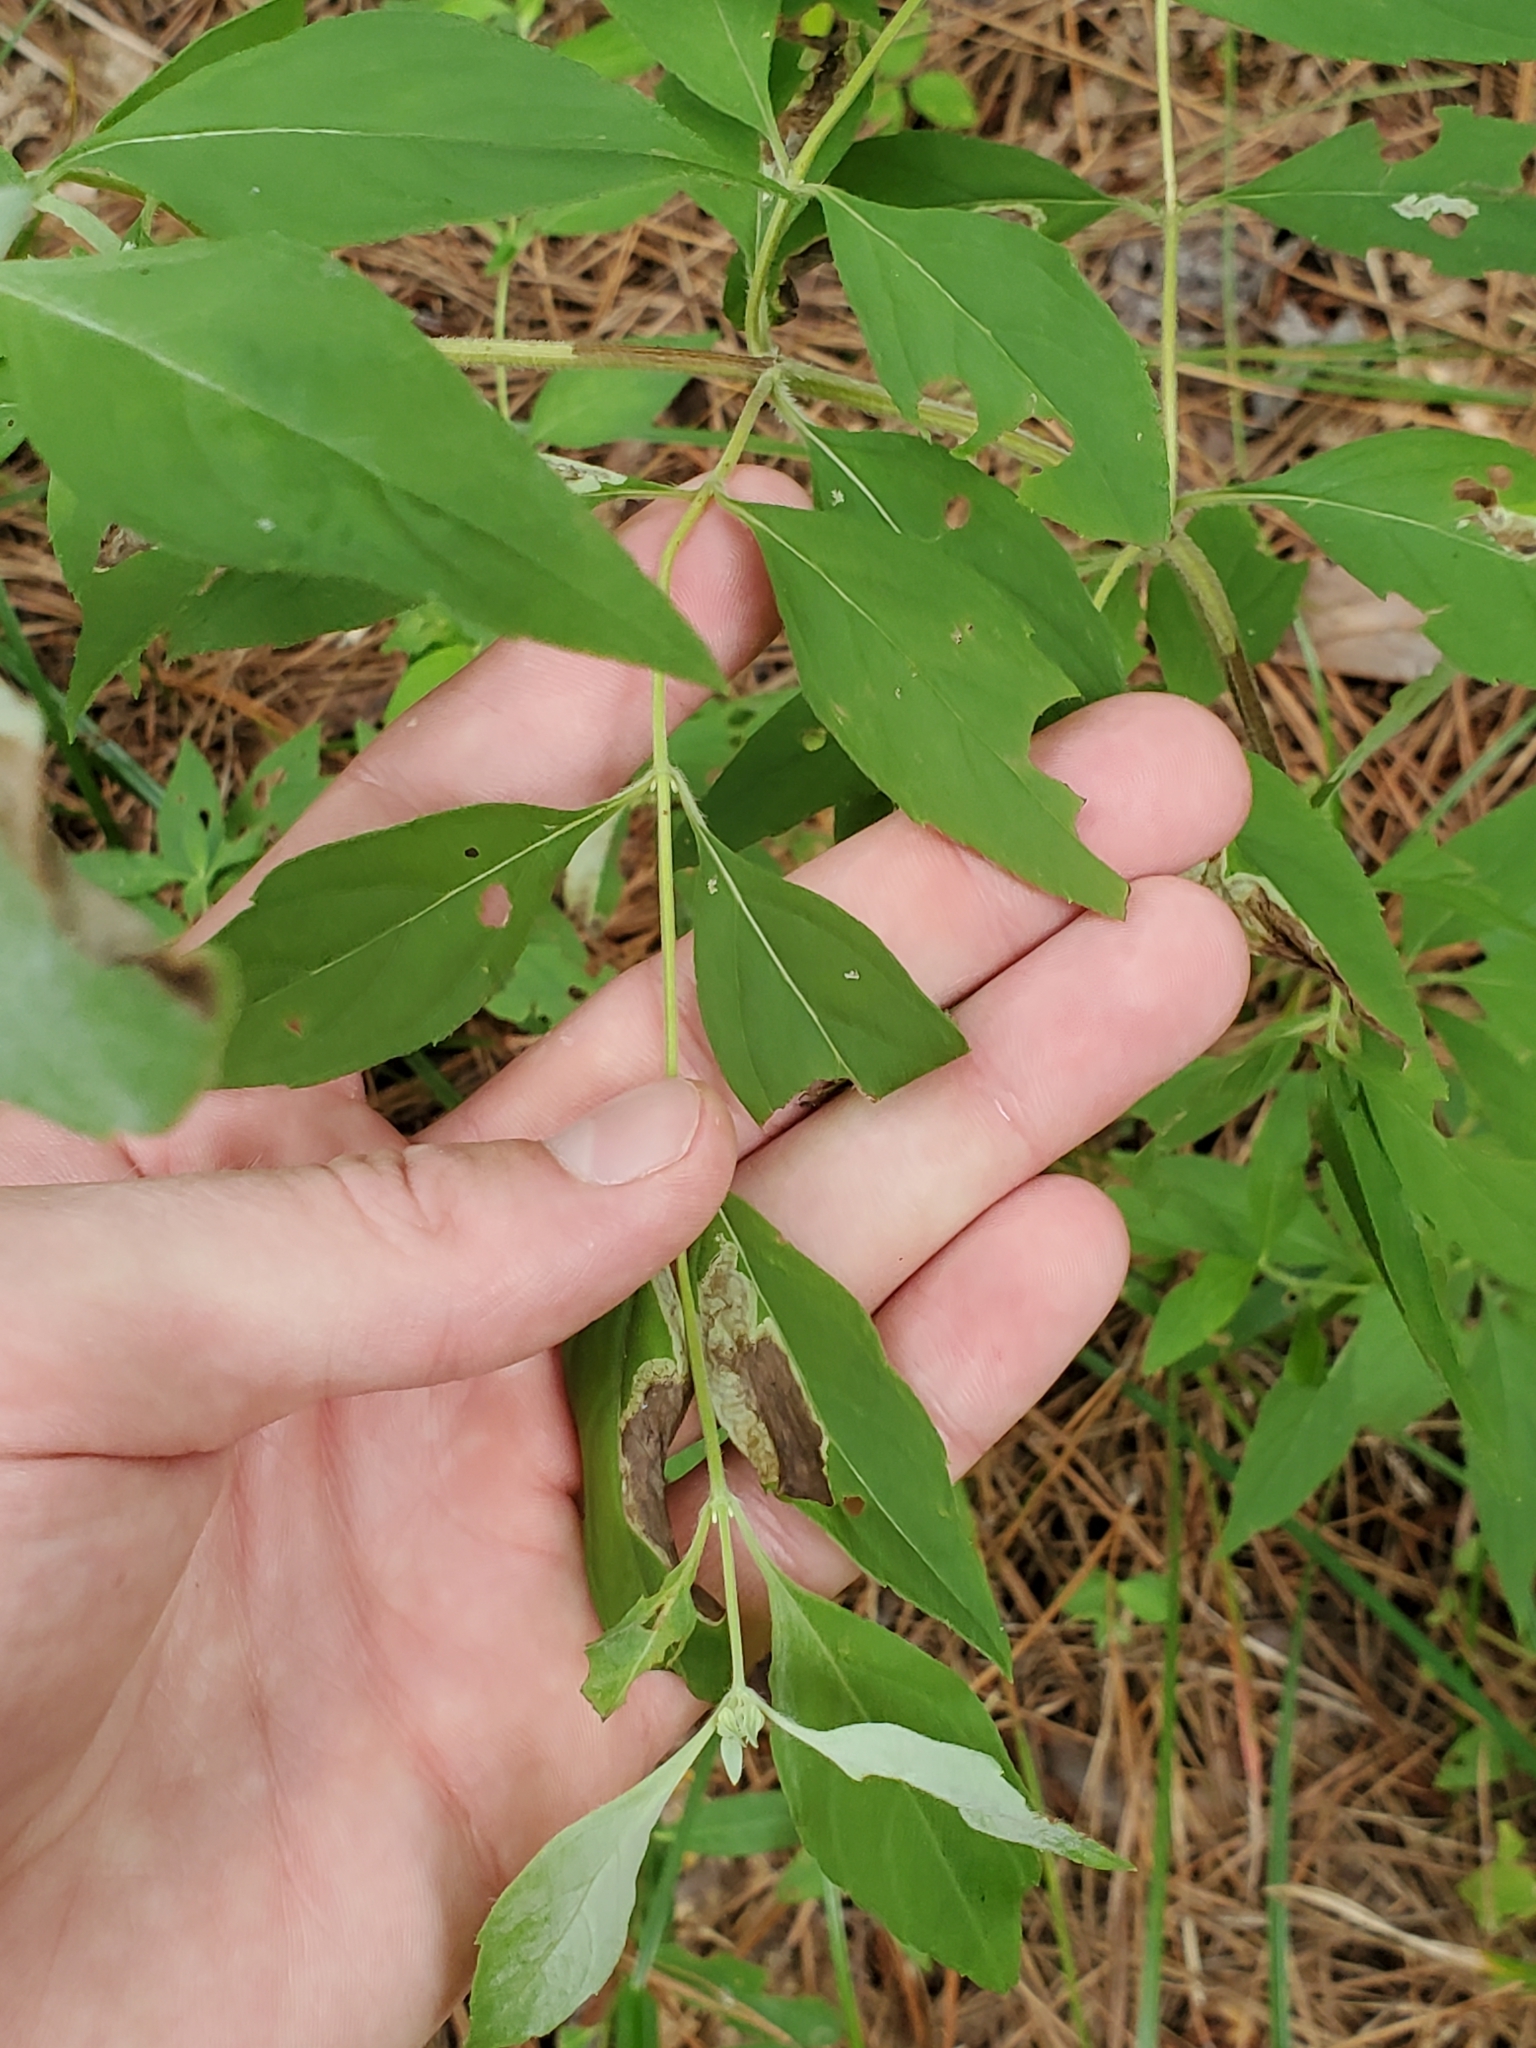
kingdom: Plantae
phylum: Tracheophyta
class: Magnoliopsida
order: Lamiales
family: Lamiaceae
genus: Pycnanthemum
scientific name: Pycnanthemum albescens
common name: White-leaf mountain-mint
